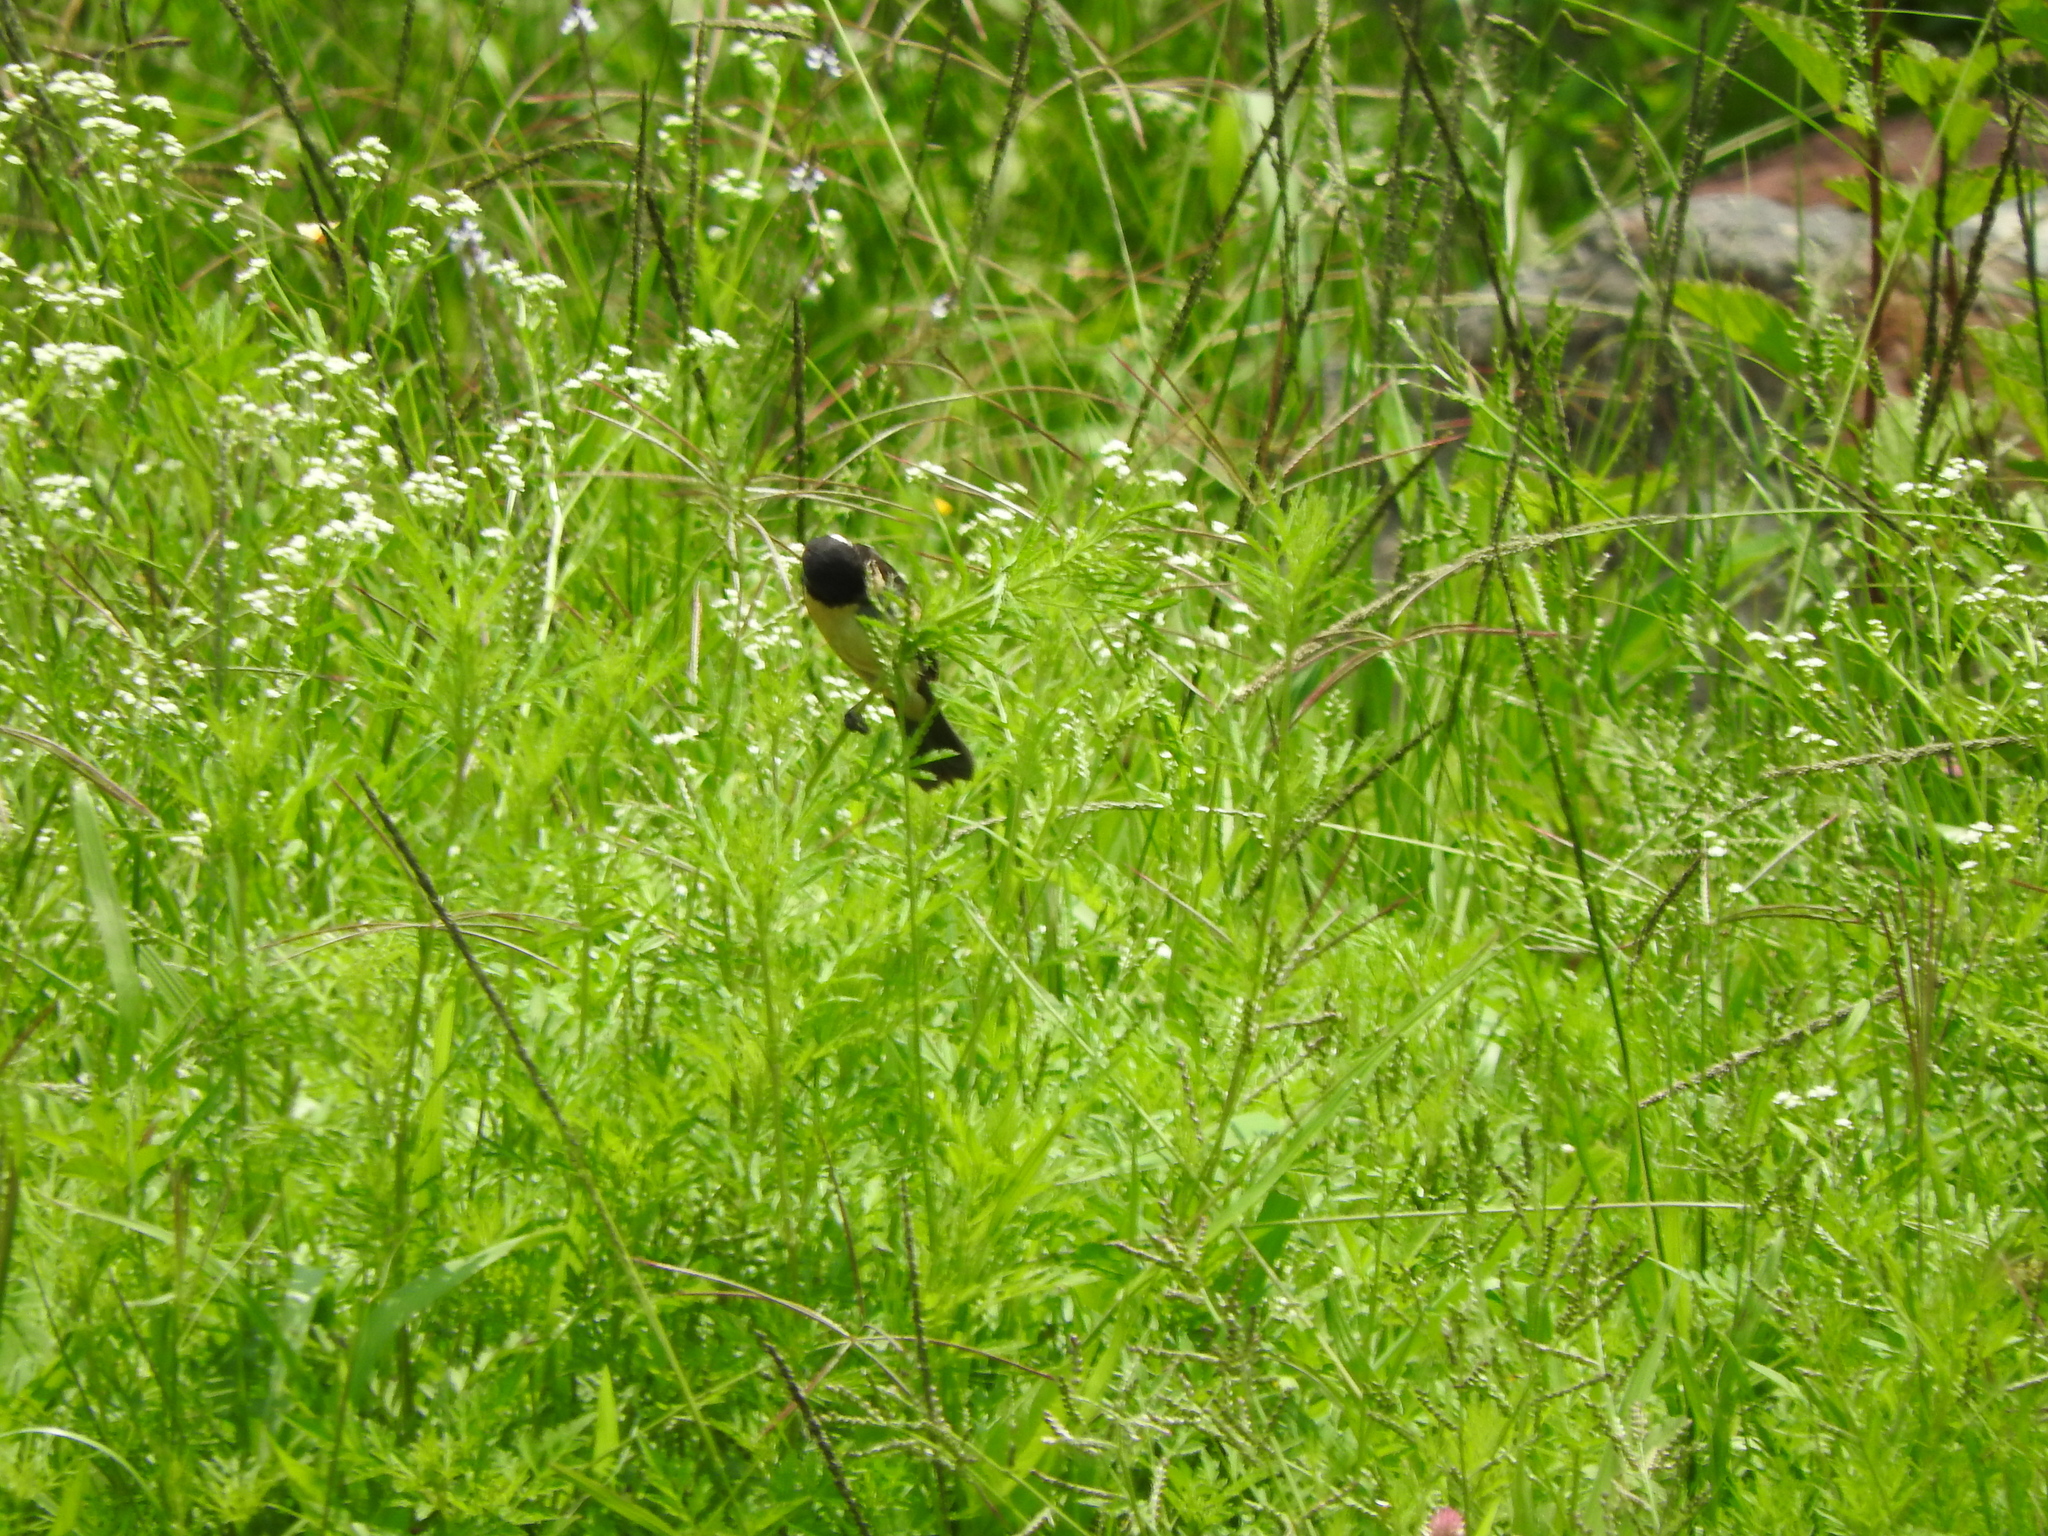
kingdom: Animalia
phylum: Chordata
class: Aves
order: Passeriformes
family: Thraupidae
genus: Sporophila
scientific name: Sporophila torqueola
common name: White-collared seedeater
